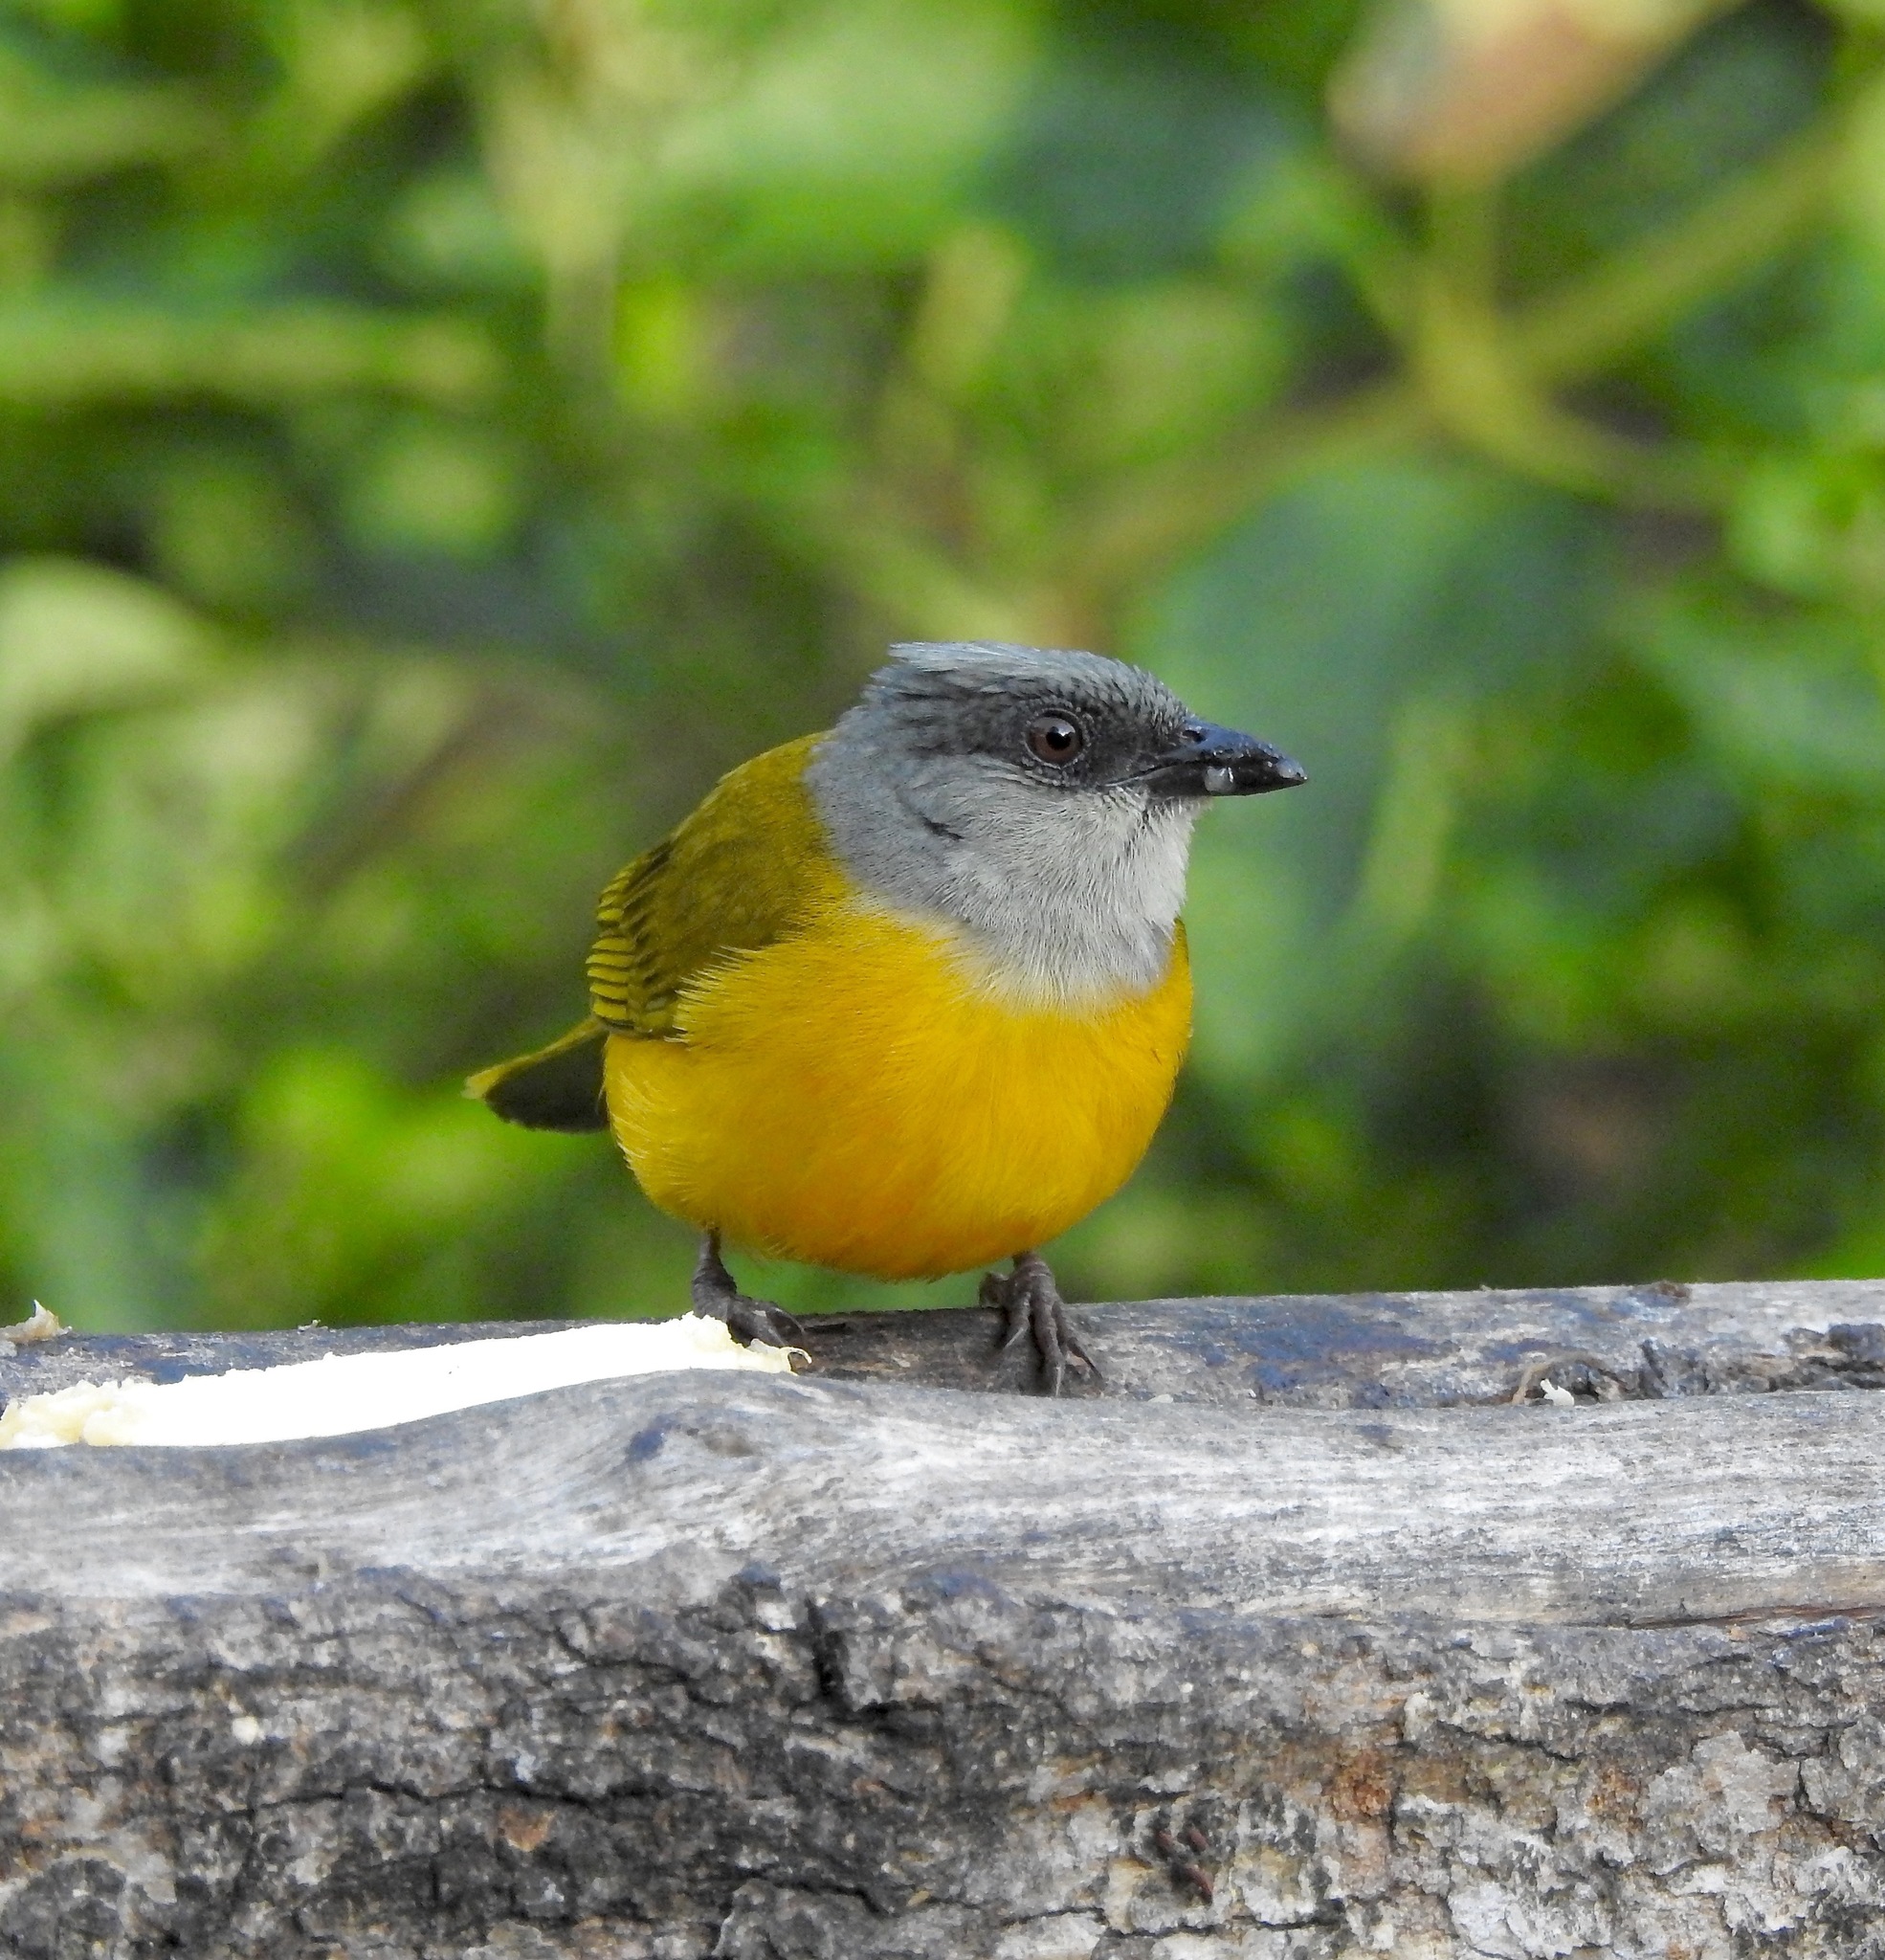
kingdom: Animalia
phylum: Chordata
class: Aves
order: Passeriformes
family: Thraupidae
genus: Eucometis
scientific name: Eucometis penicillata
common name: Grey-headed tanager
